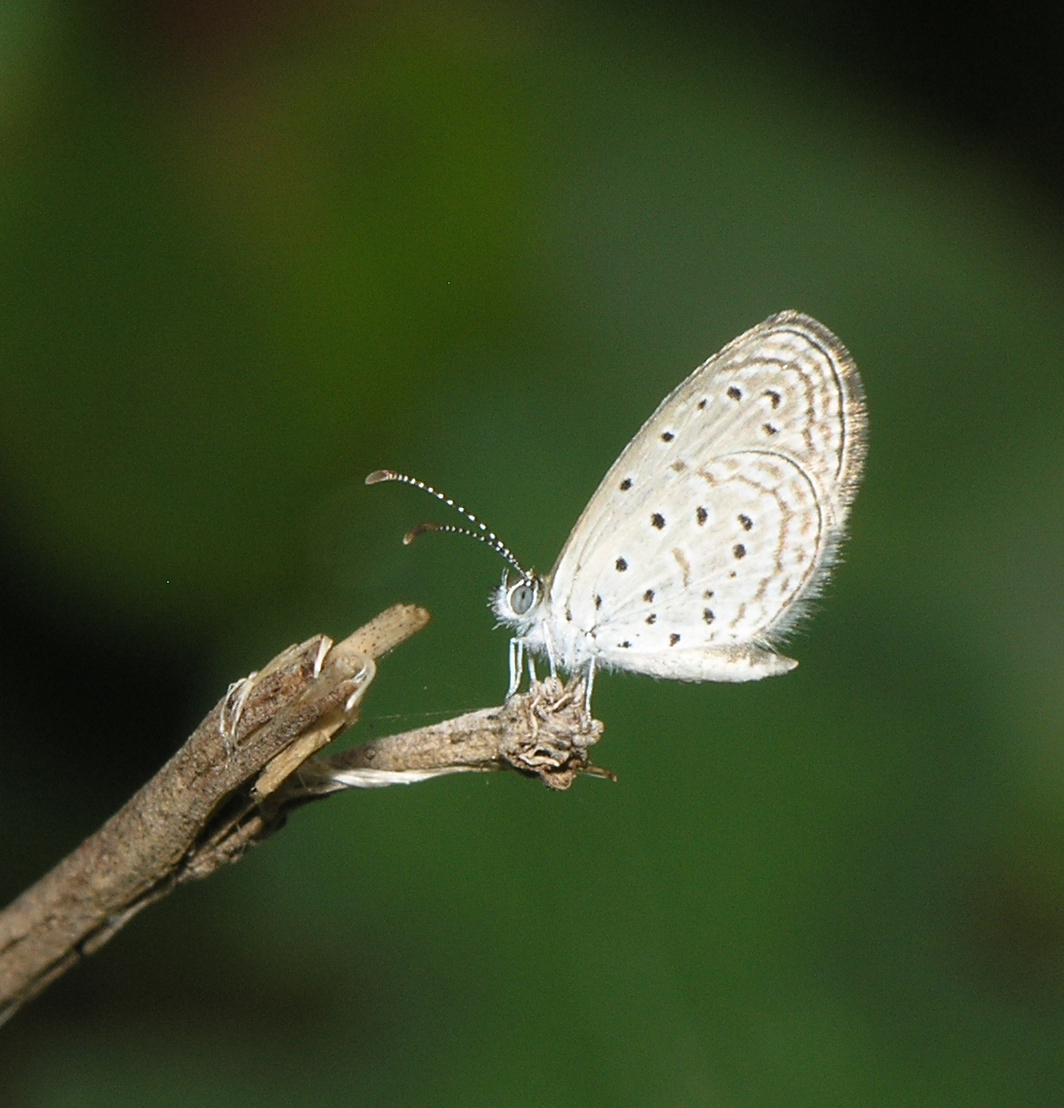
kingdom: Animalia
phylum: Arthropoda
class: Insecta
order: Lepidoptera
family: Lycaenidae
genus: Zizula
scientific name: Zizula hylax
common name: Gaika blue
